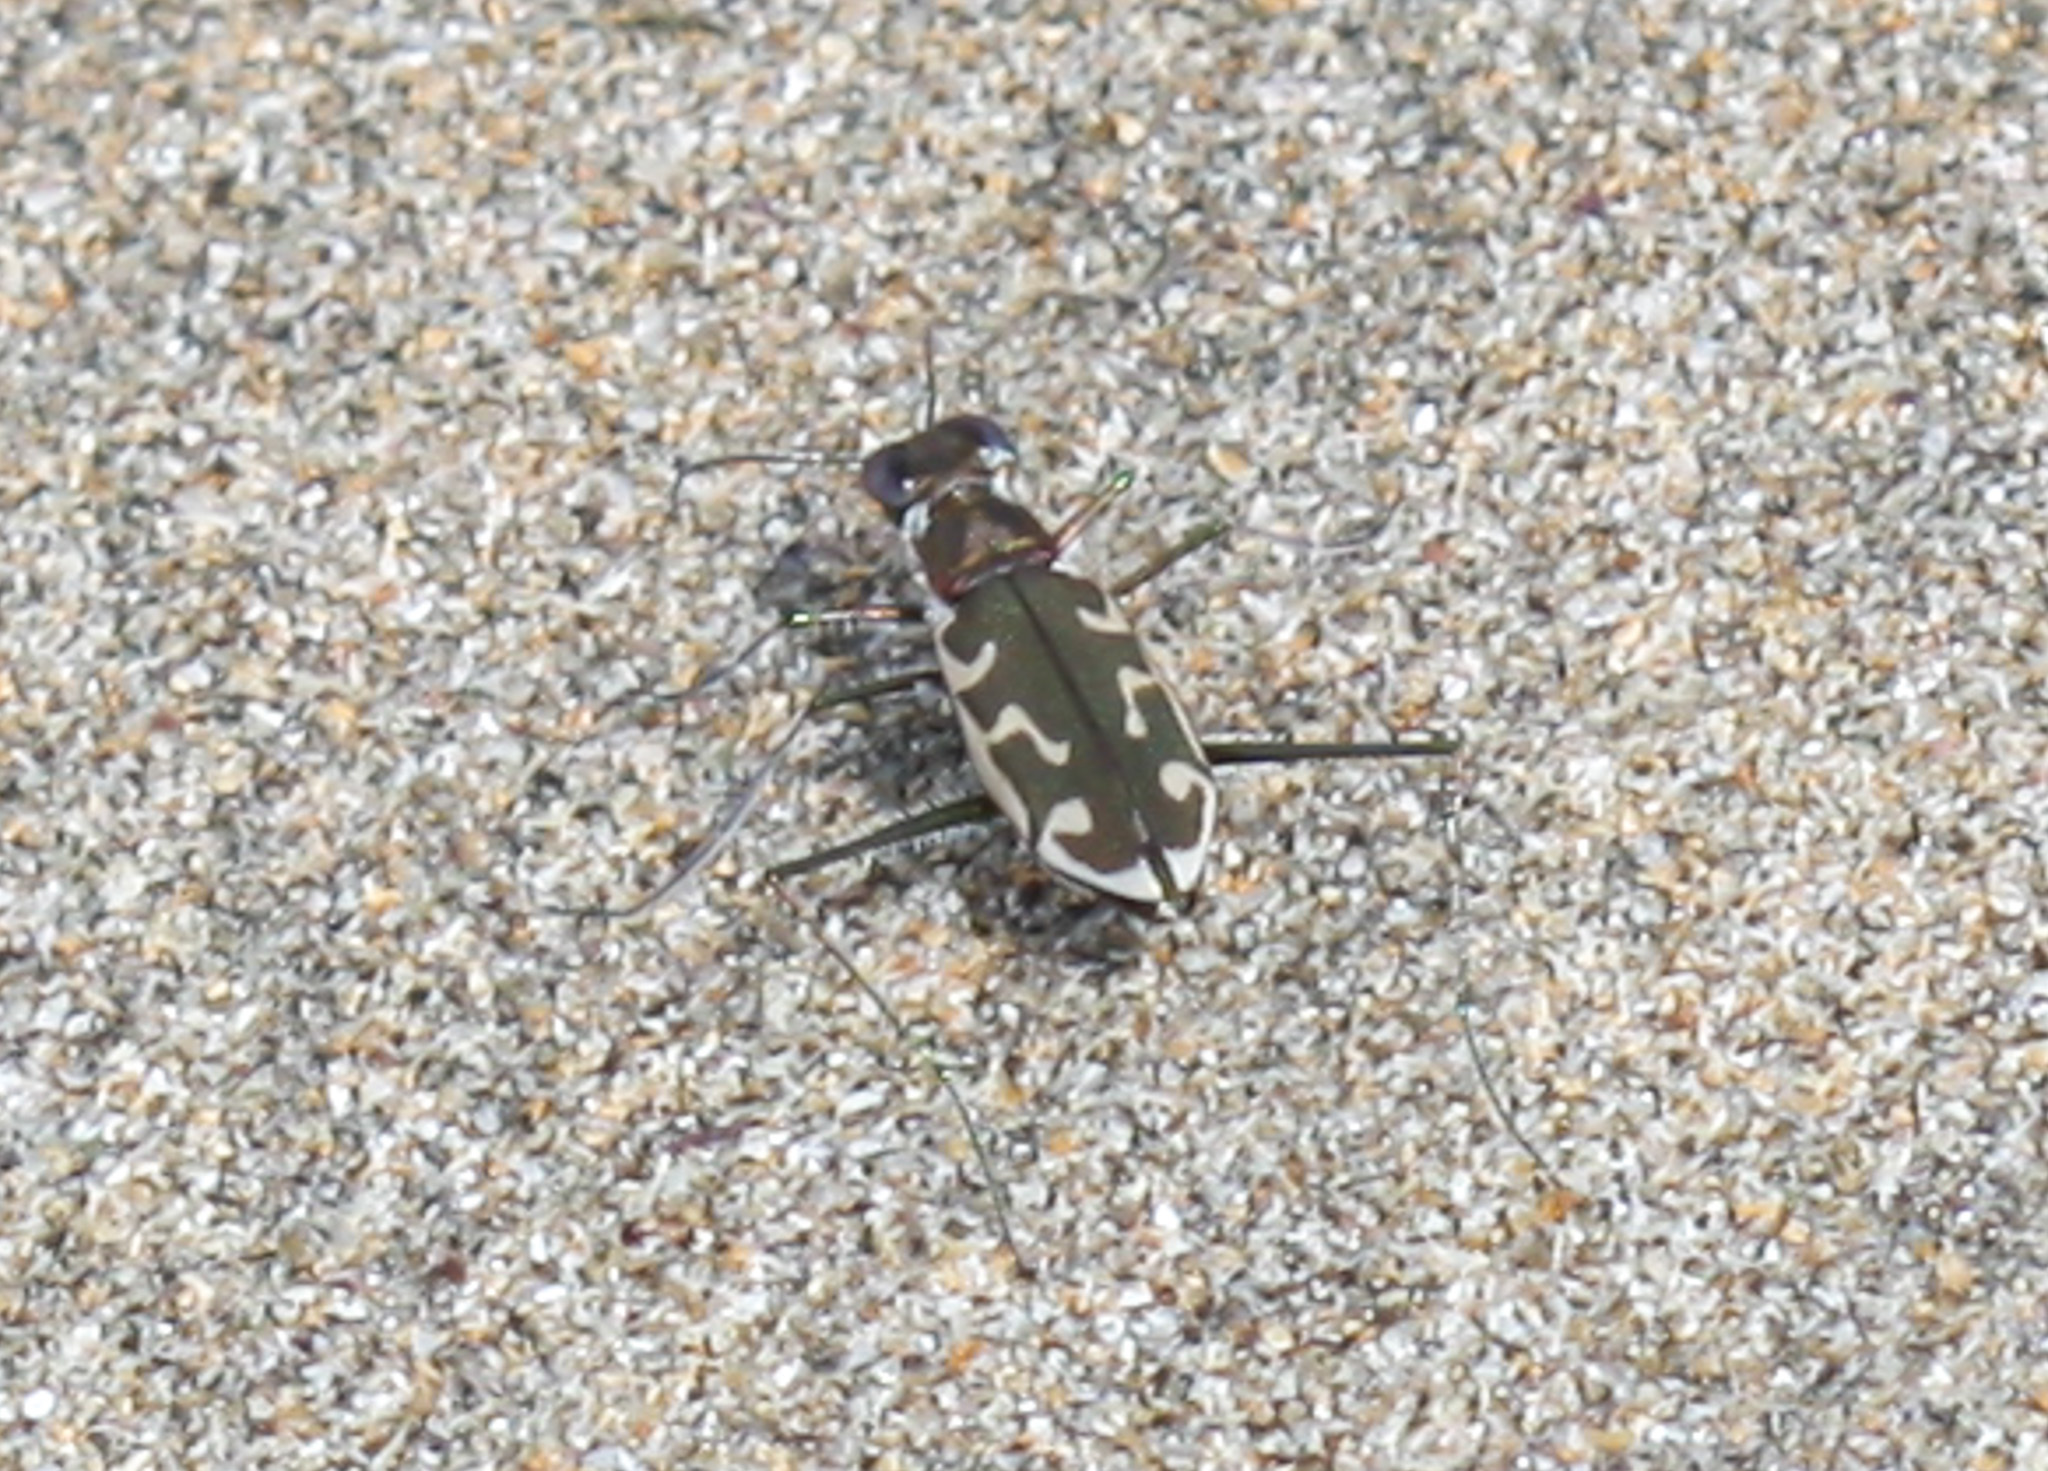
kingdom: Animalia
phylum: Arthropoda
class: Insecta
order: Coleoptera
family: Carabidae
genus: Opilidia
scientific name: Opilidia macrocnema
